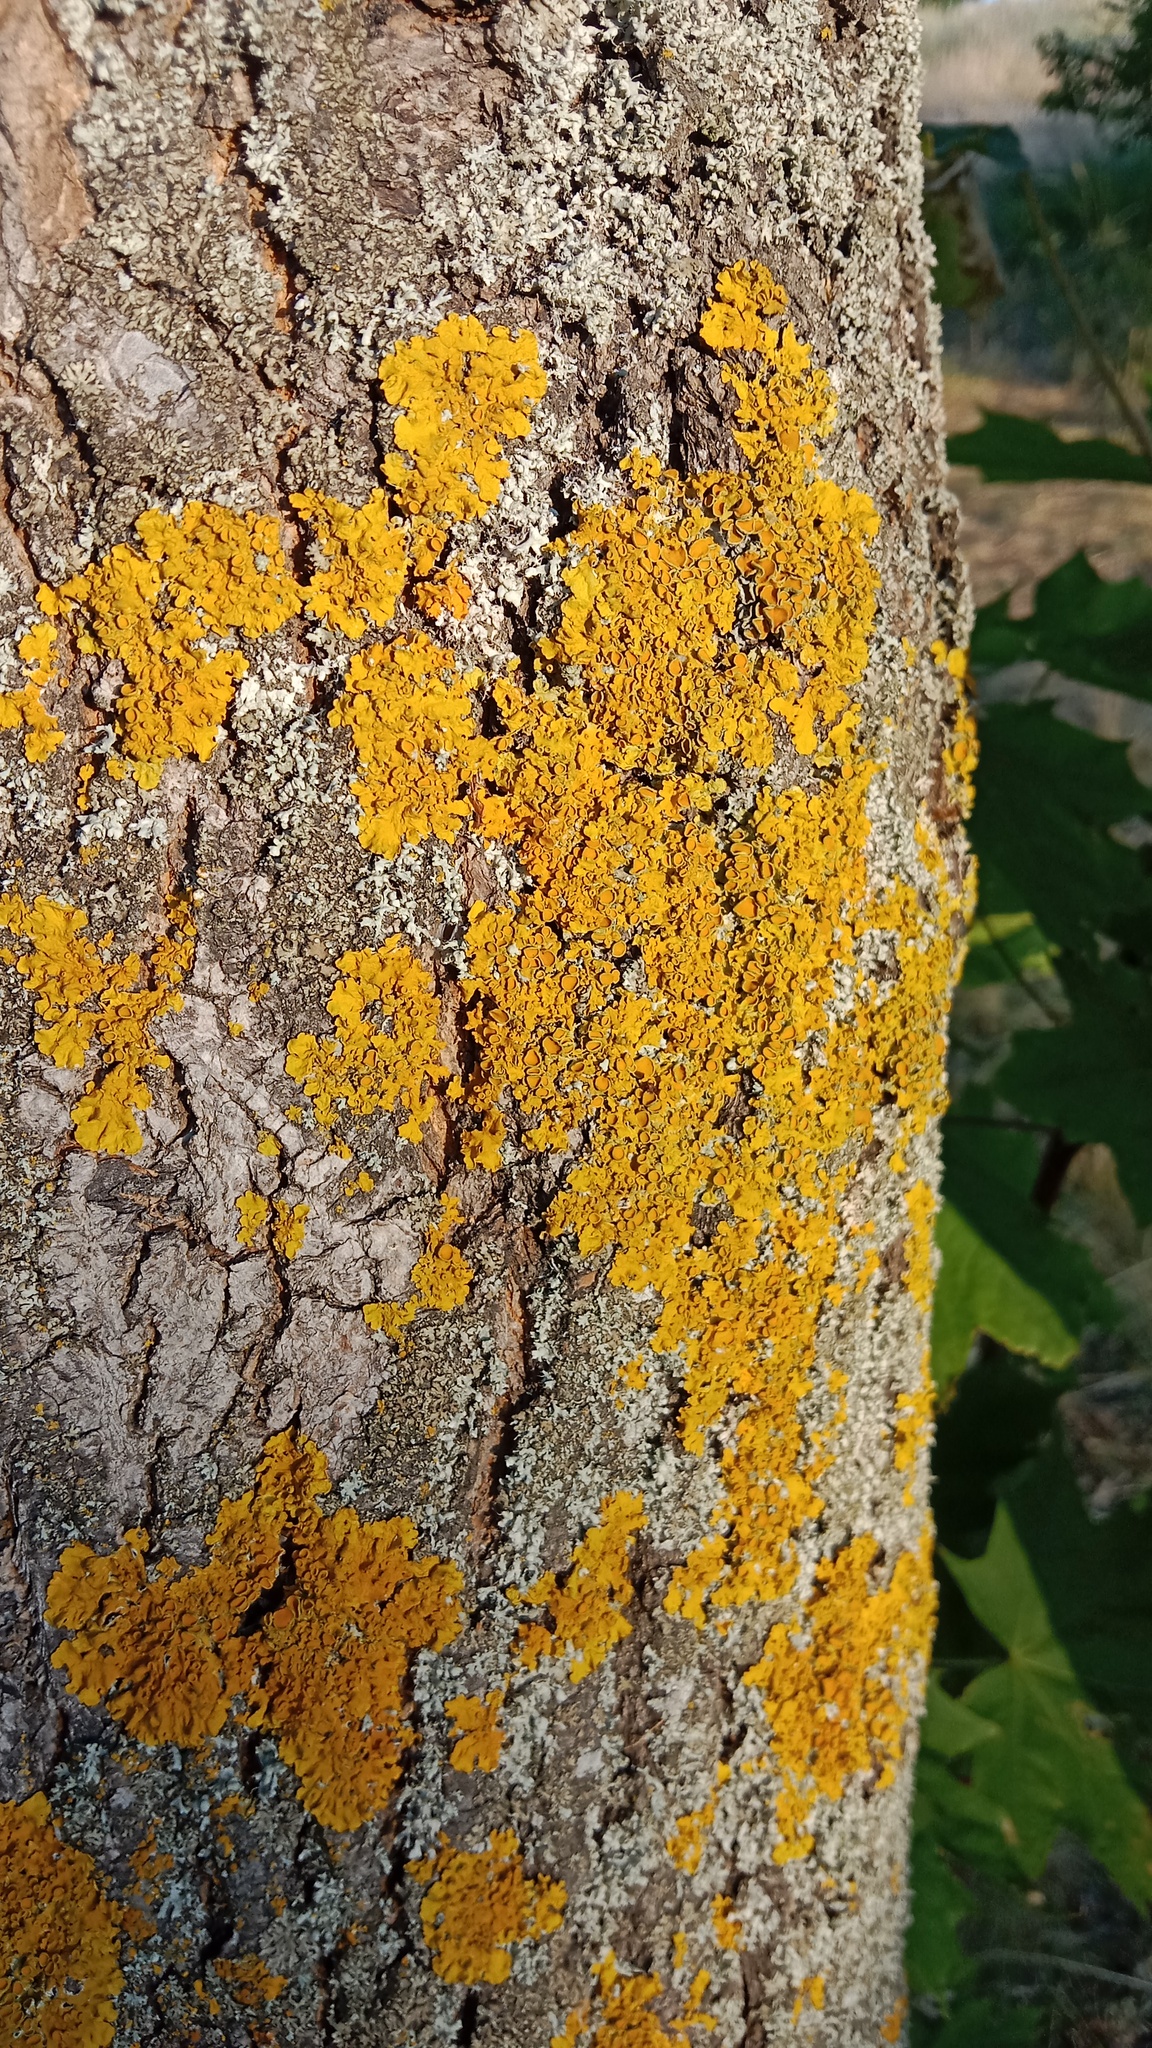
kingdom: Fungi
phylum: Ascomycota
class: Lecanoromycetes
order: Teloschistales
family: Teloschistaceae
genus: Xanthoria
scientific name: Xanthoria parietina
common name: Common orange lichen
